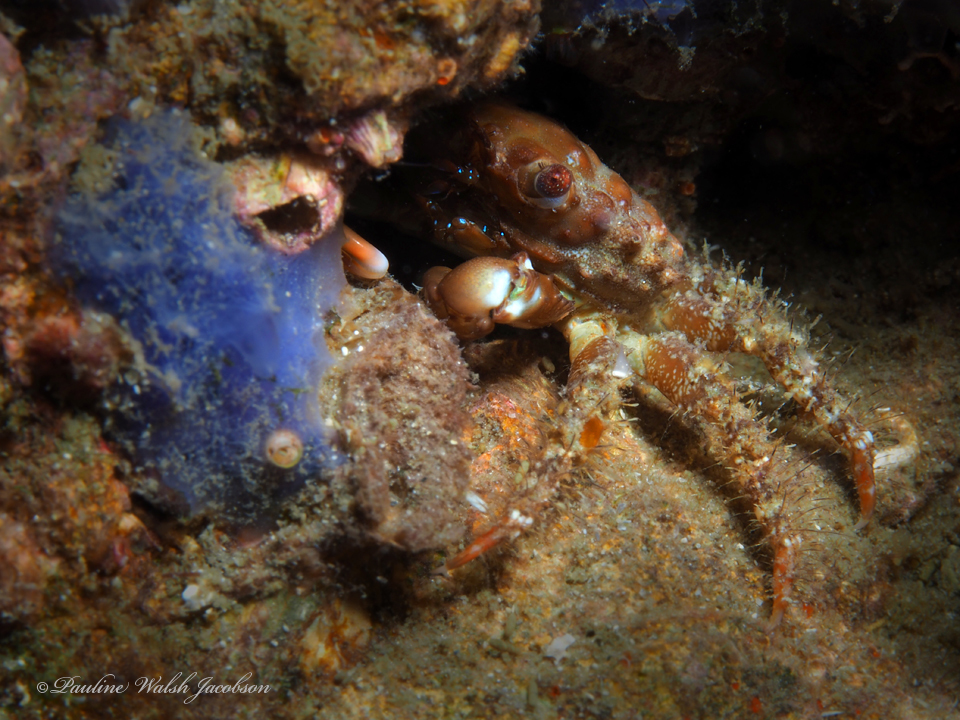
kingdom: Animalia
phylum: Arthropoda
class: Malacostraca
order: Decapoda
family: Mithracidae
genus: Mithraculus
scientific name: Mithraculus forceps
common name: Red-ridged clinging crab
